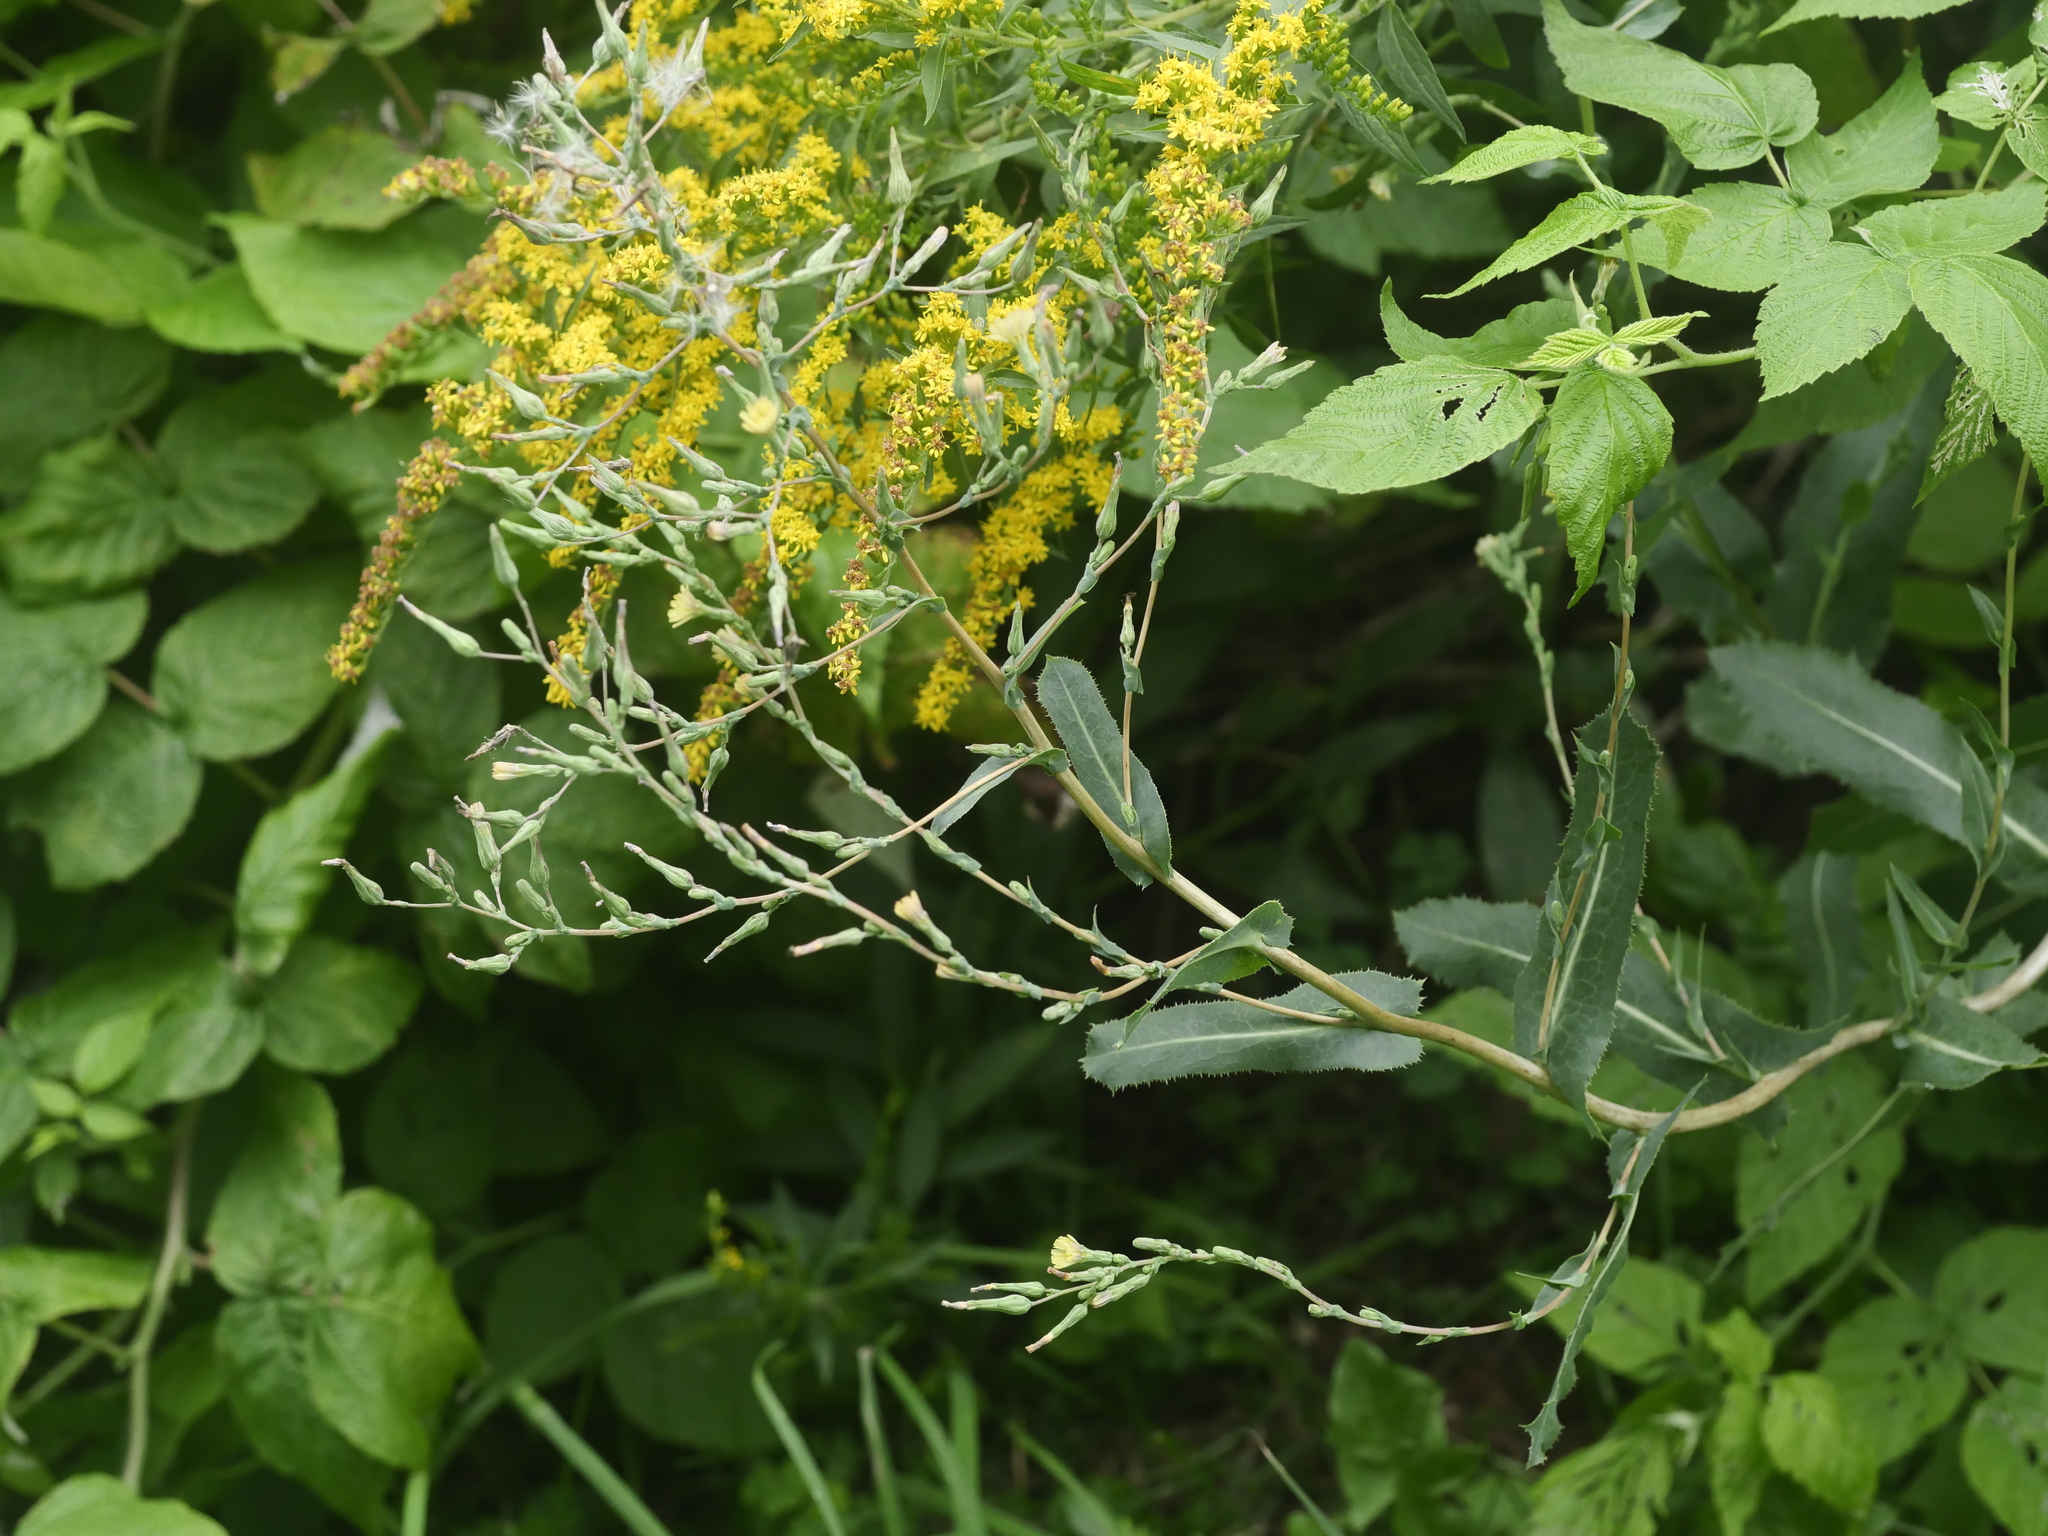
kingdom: Plantae
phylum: Tracheophyta
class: Magnoliopsida
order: Asterales
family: Asteraceae
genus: Lactuca
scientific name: Lactuca serriola
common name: Prickly lettuce
